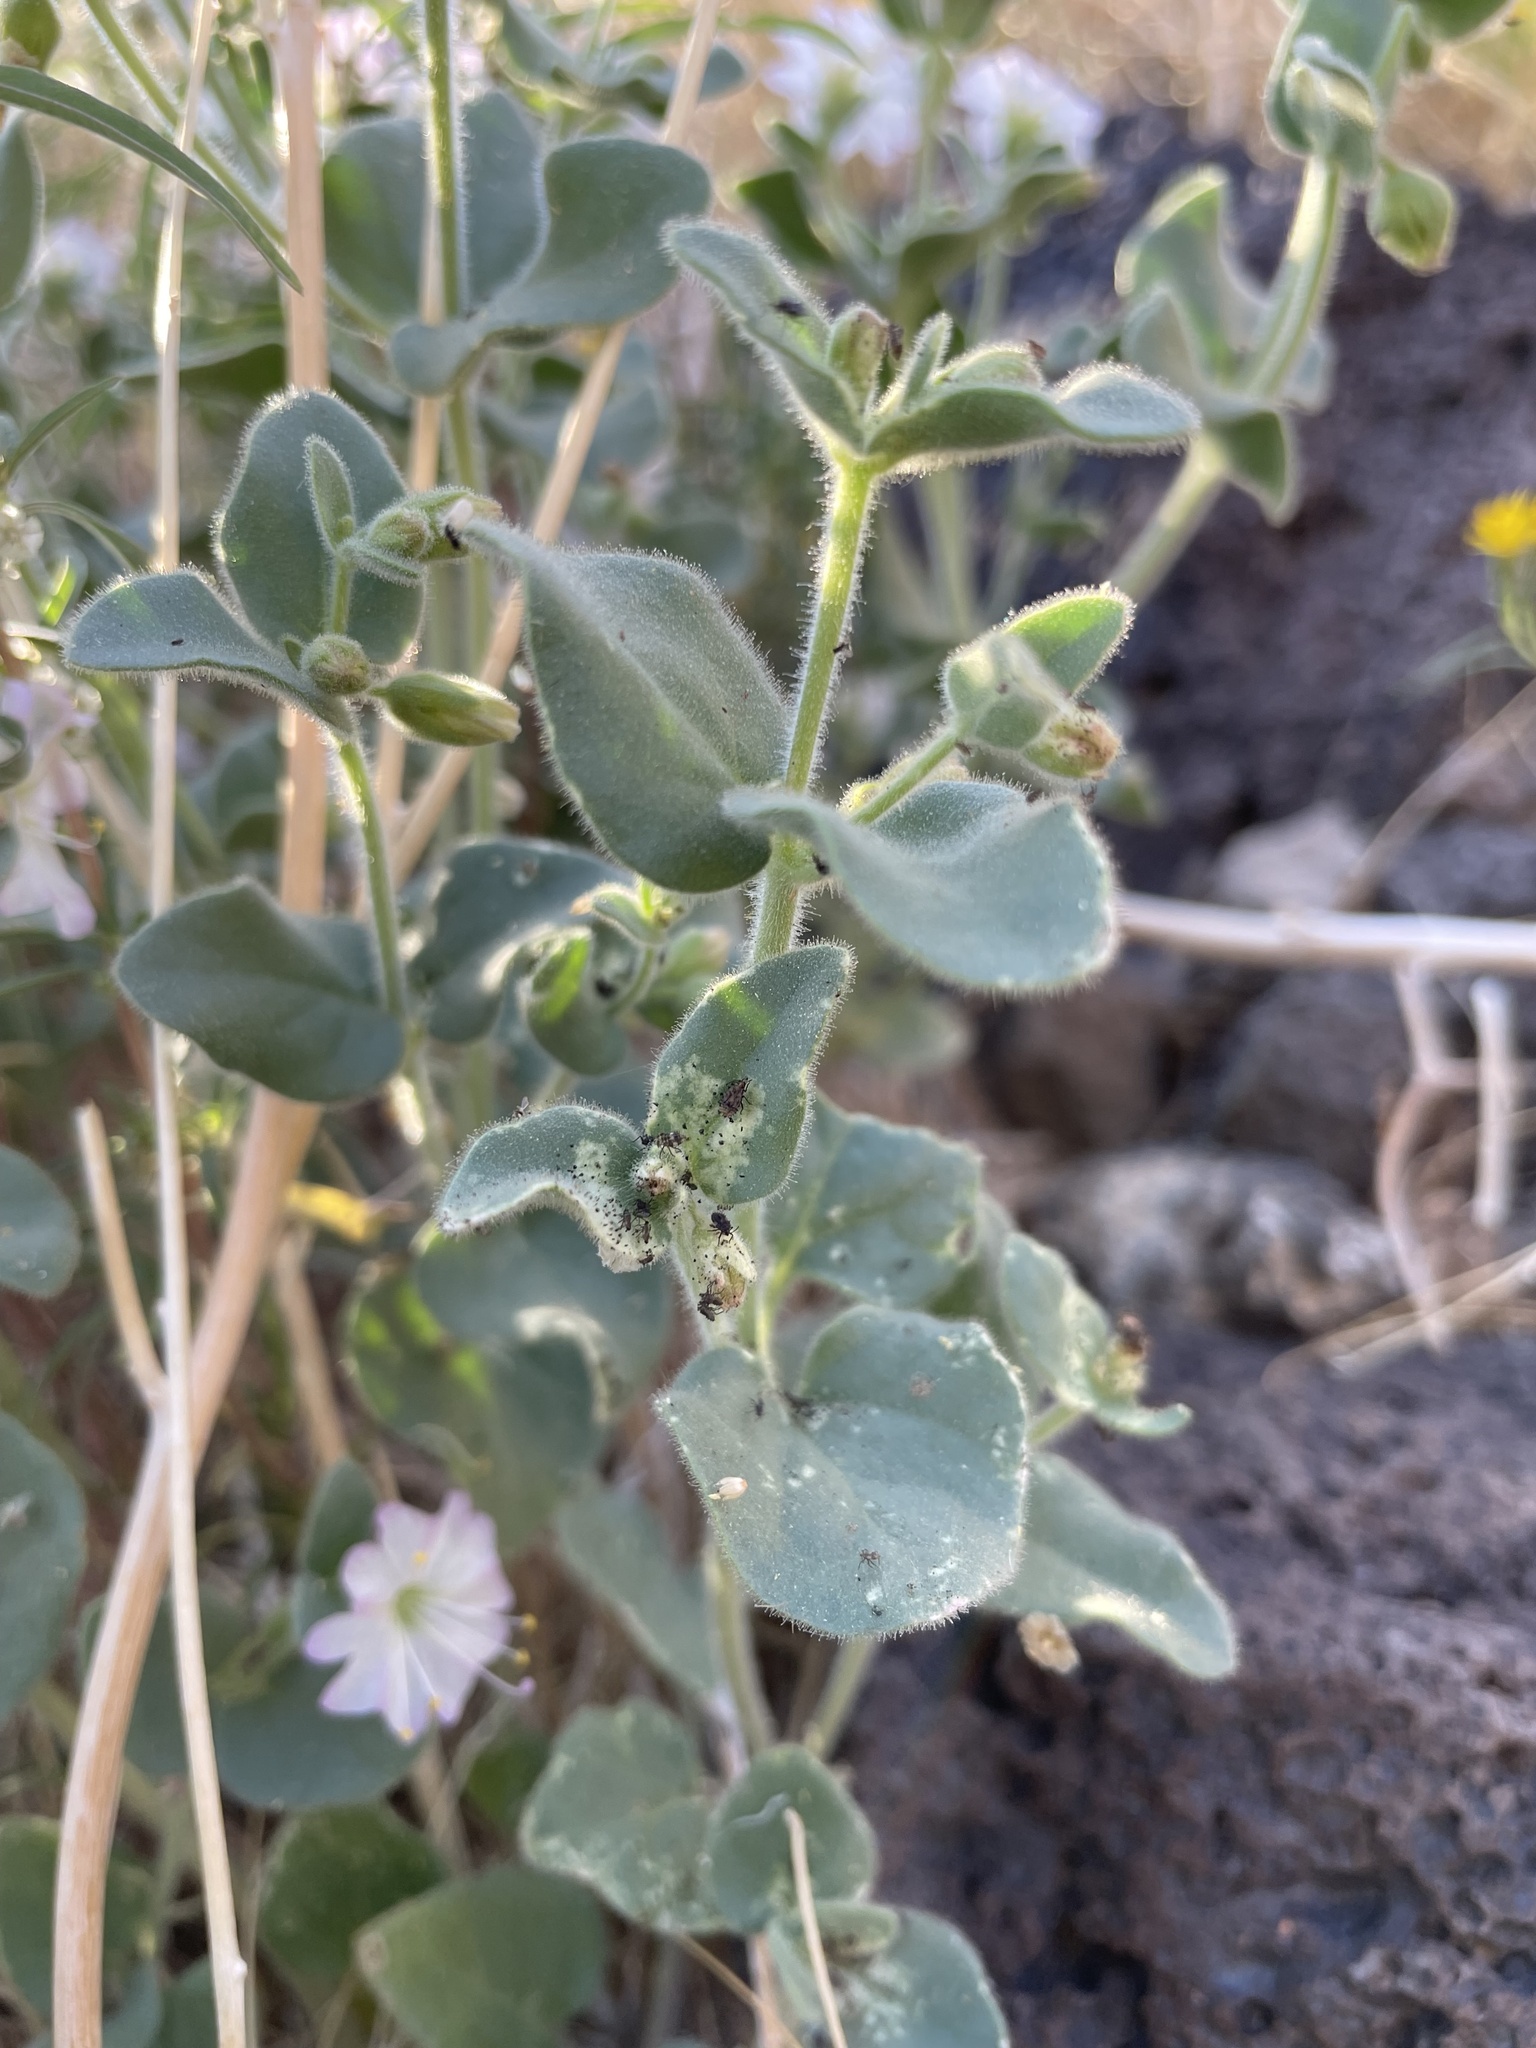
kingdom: Plantae
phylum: Tracheophyta
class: Magnoliopsida
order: Caryophyllales
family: Nyctaginaceae
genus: Mirabilis
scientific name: Mirabilis laevis
